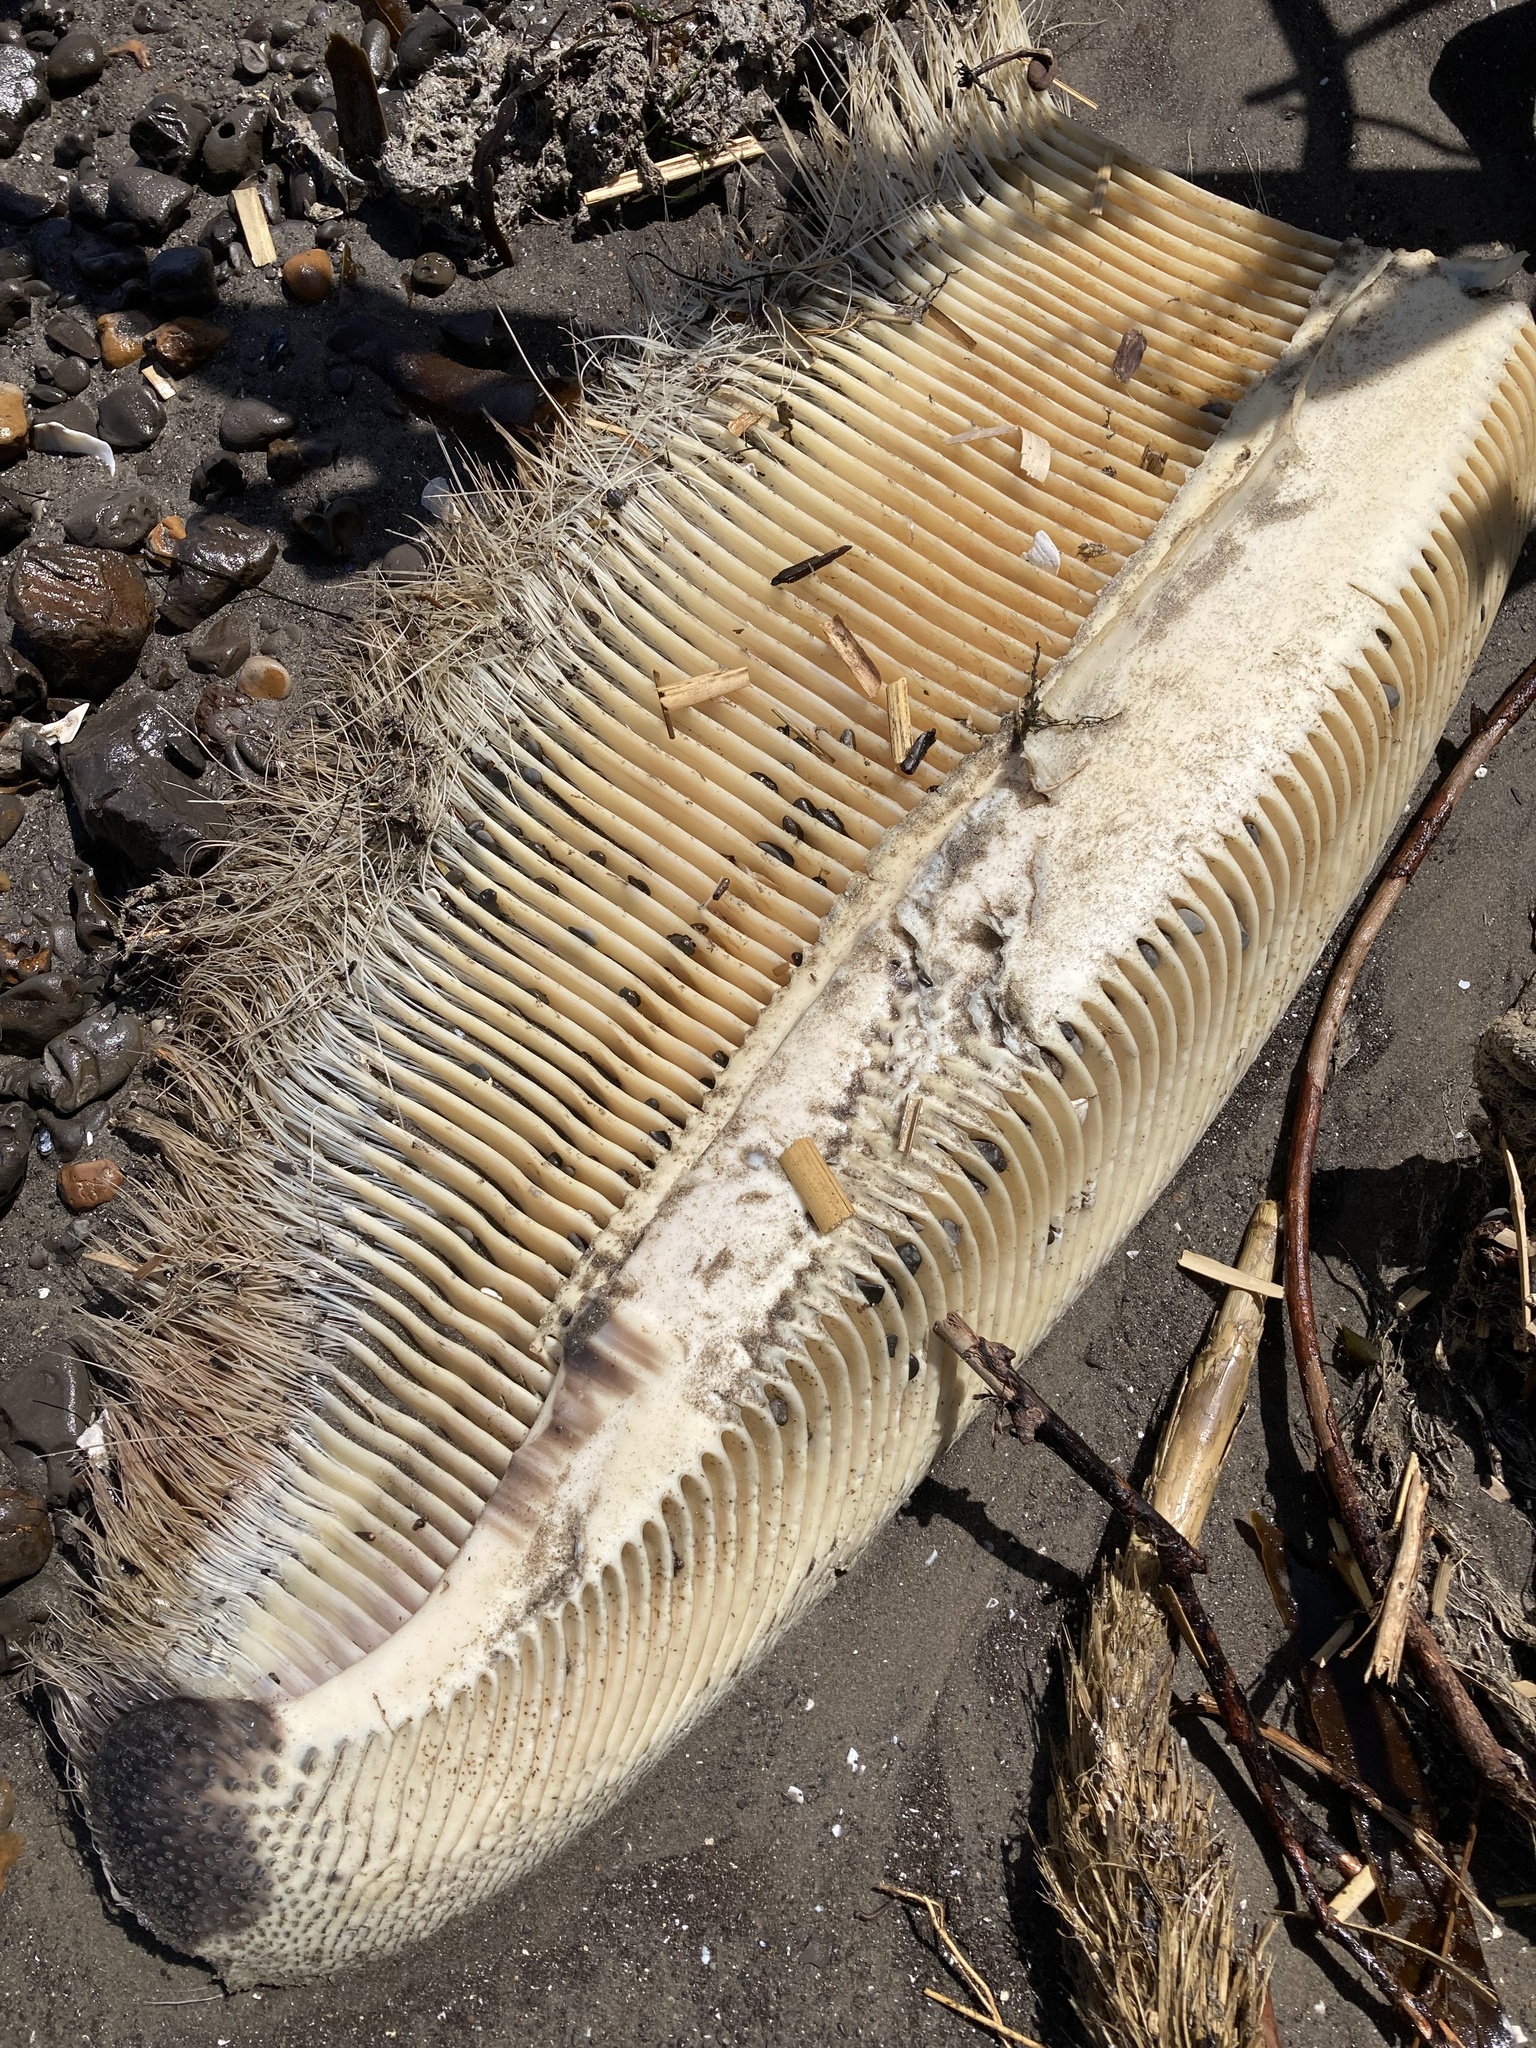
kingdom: Animalia
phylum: Chordata
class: Mammalia
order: Cetacea
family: Eschrichtiidae
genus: Eschrichtius
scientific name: Eschrichtius robustus
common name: Gray whale
